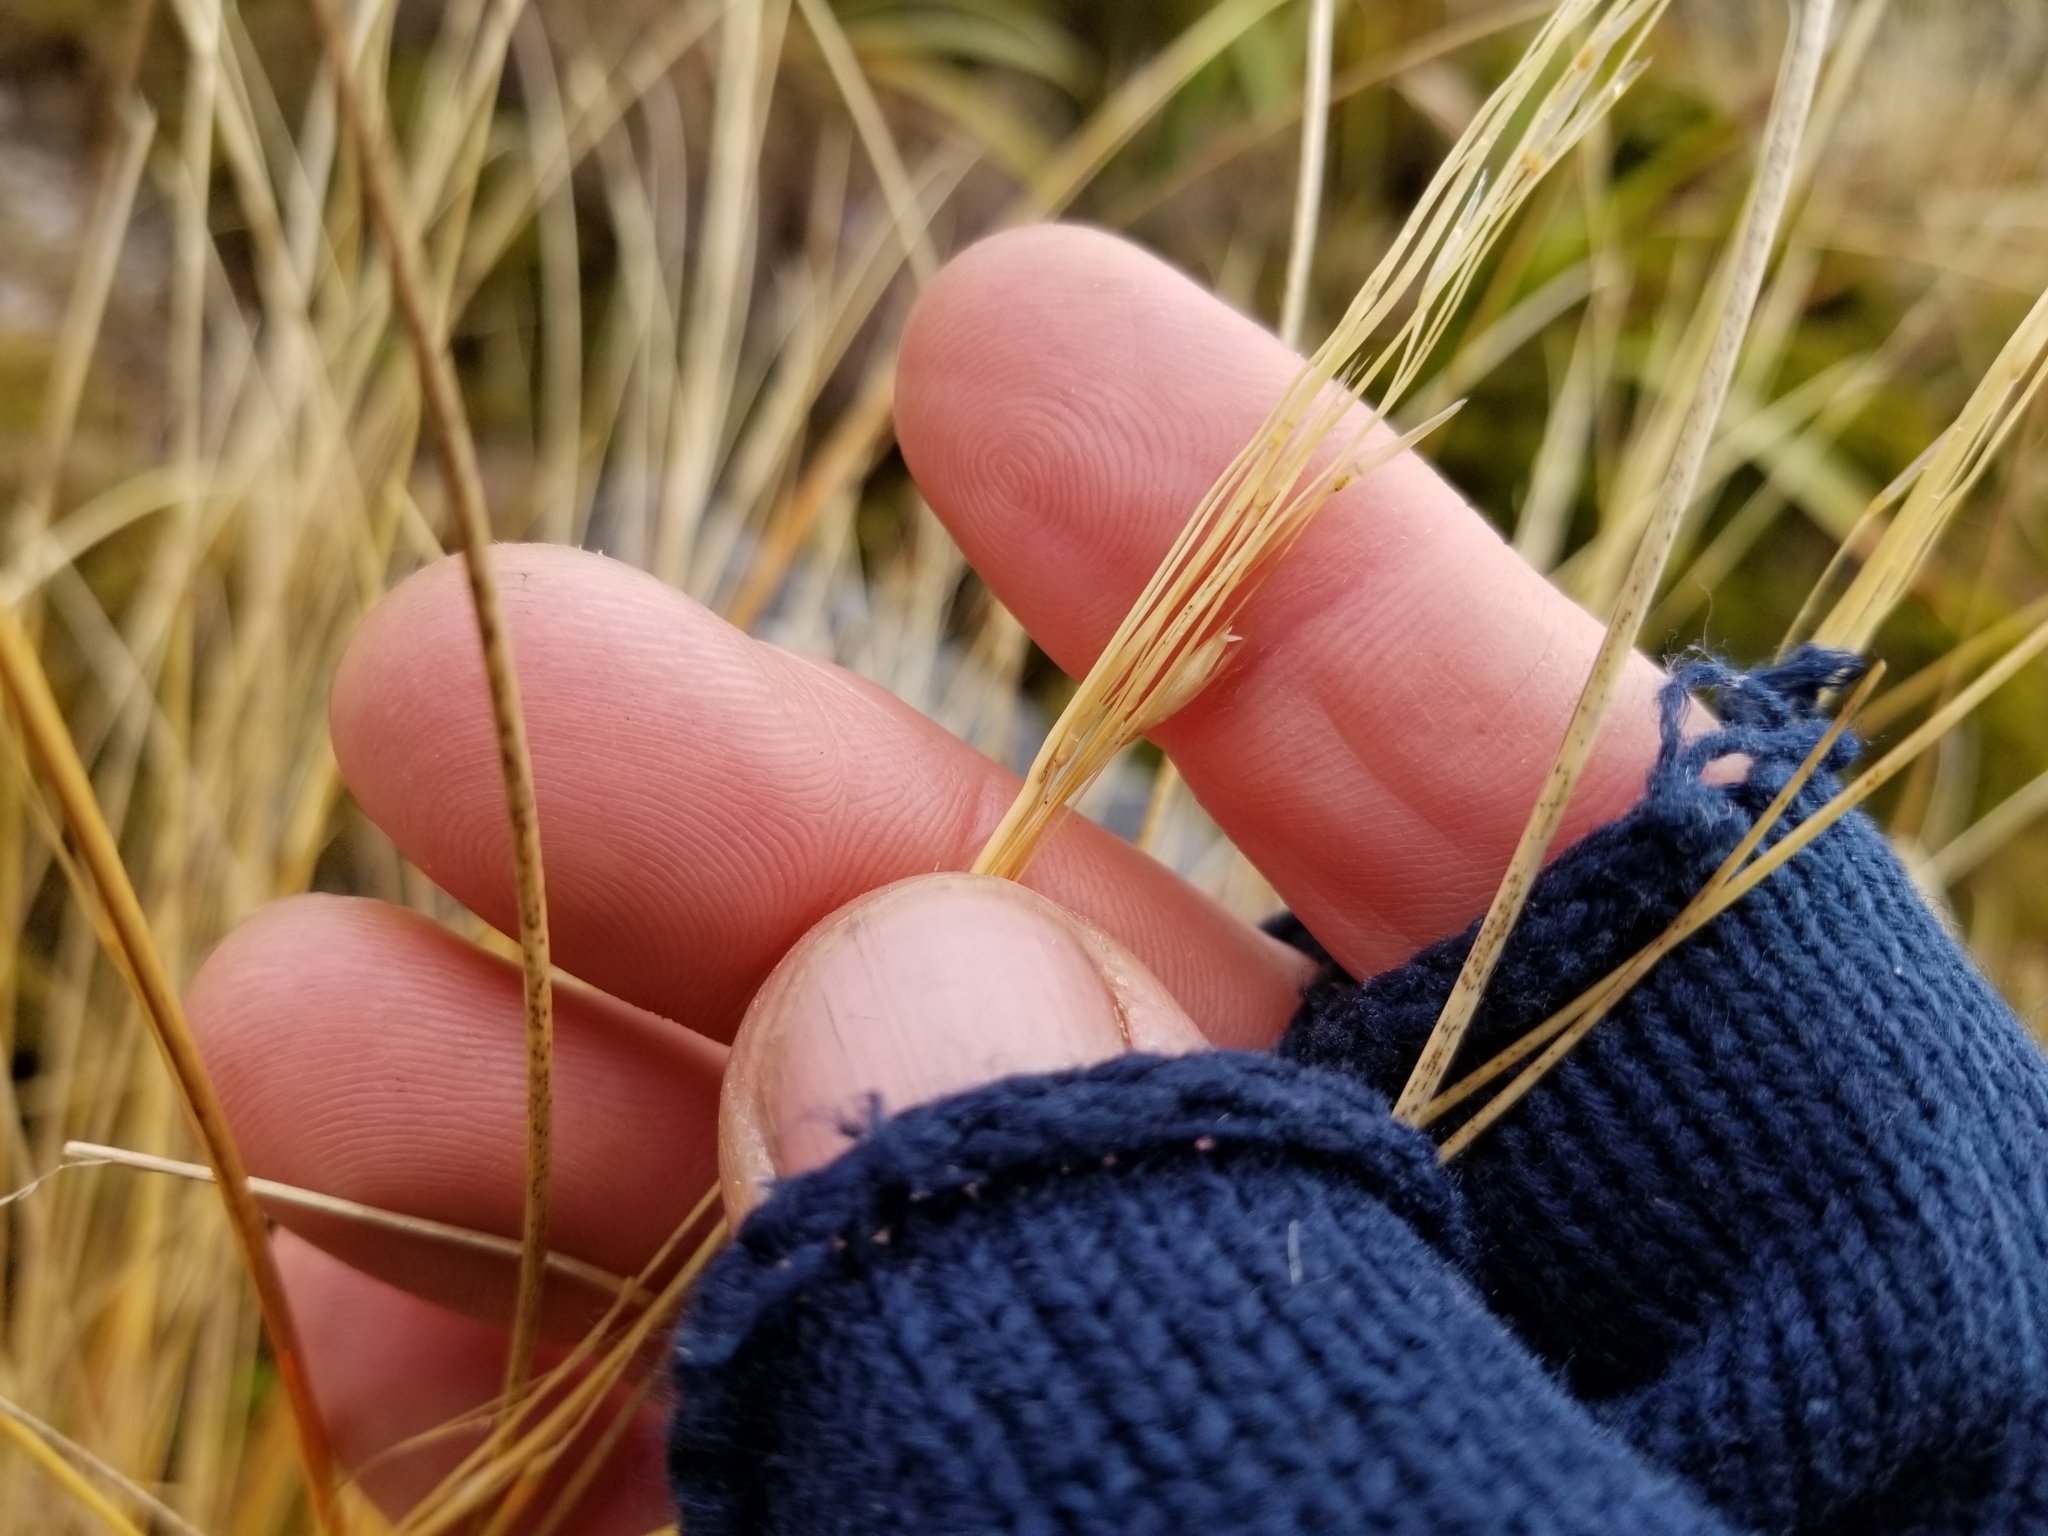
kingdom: Plantae
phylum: Tracheophyta
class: Liliopsida
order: Poales
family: Poaceae
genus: Chionochloa
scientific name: Chionochloa rubra
